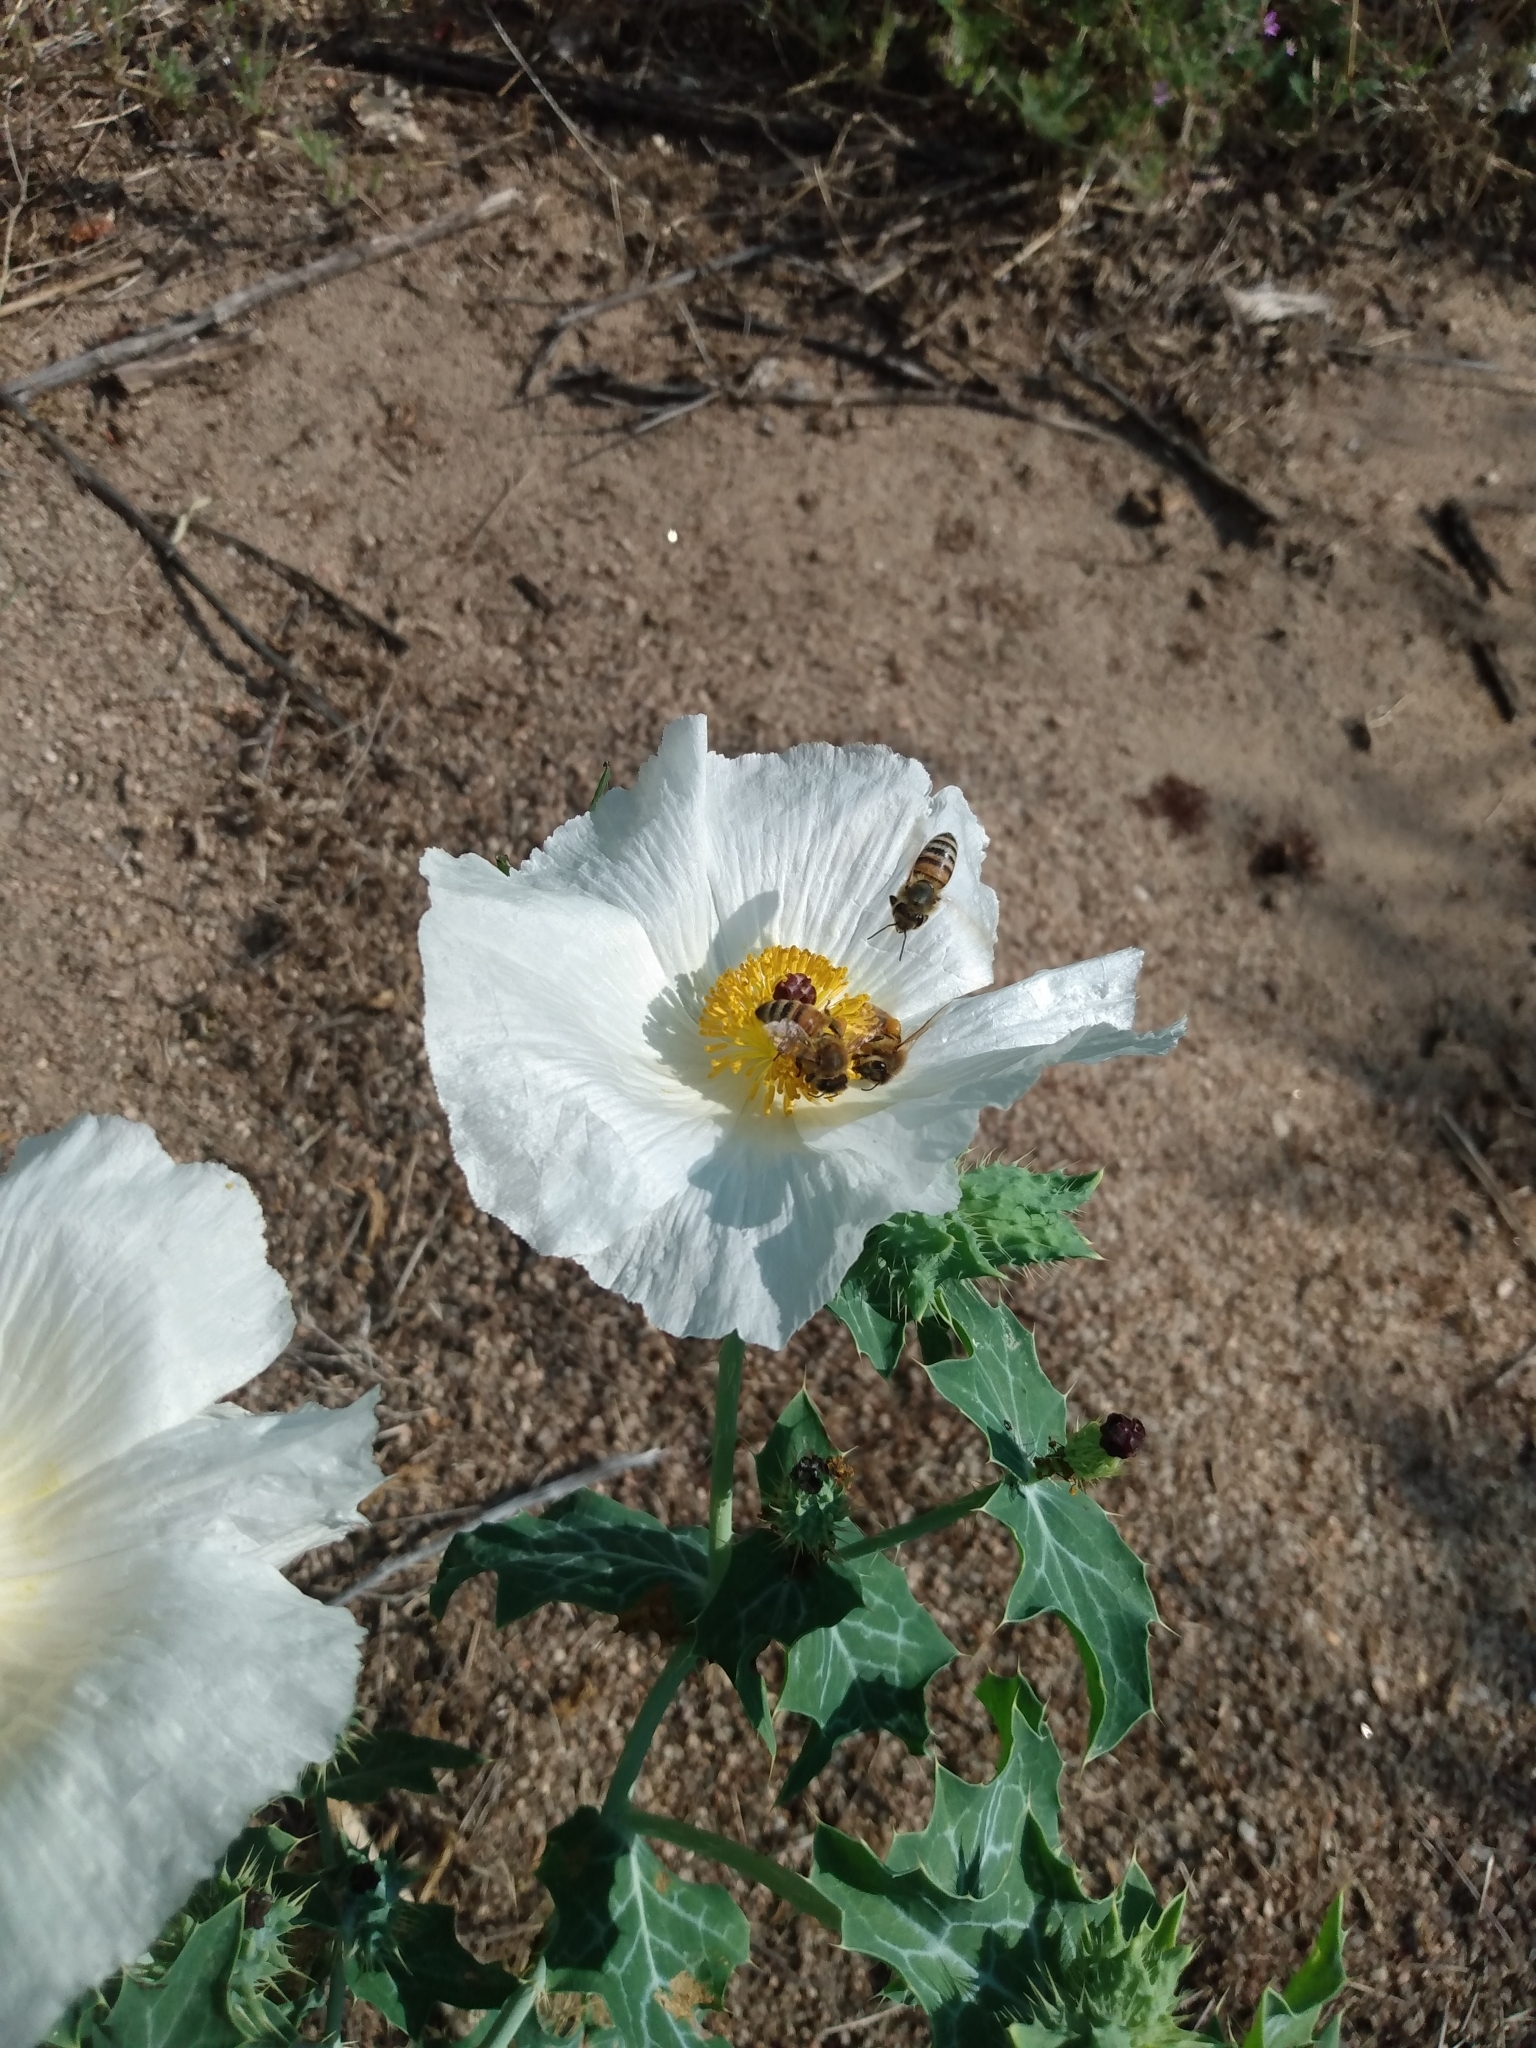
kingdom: Plantae
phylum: Tracheophyta
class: Magnoliopsida
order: Ranunculales
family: Papaveraceae
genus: Argemone
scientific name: Argemone polyanthemos
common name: Plains prickly-poppy
